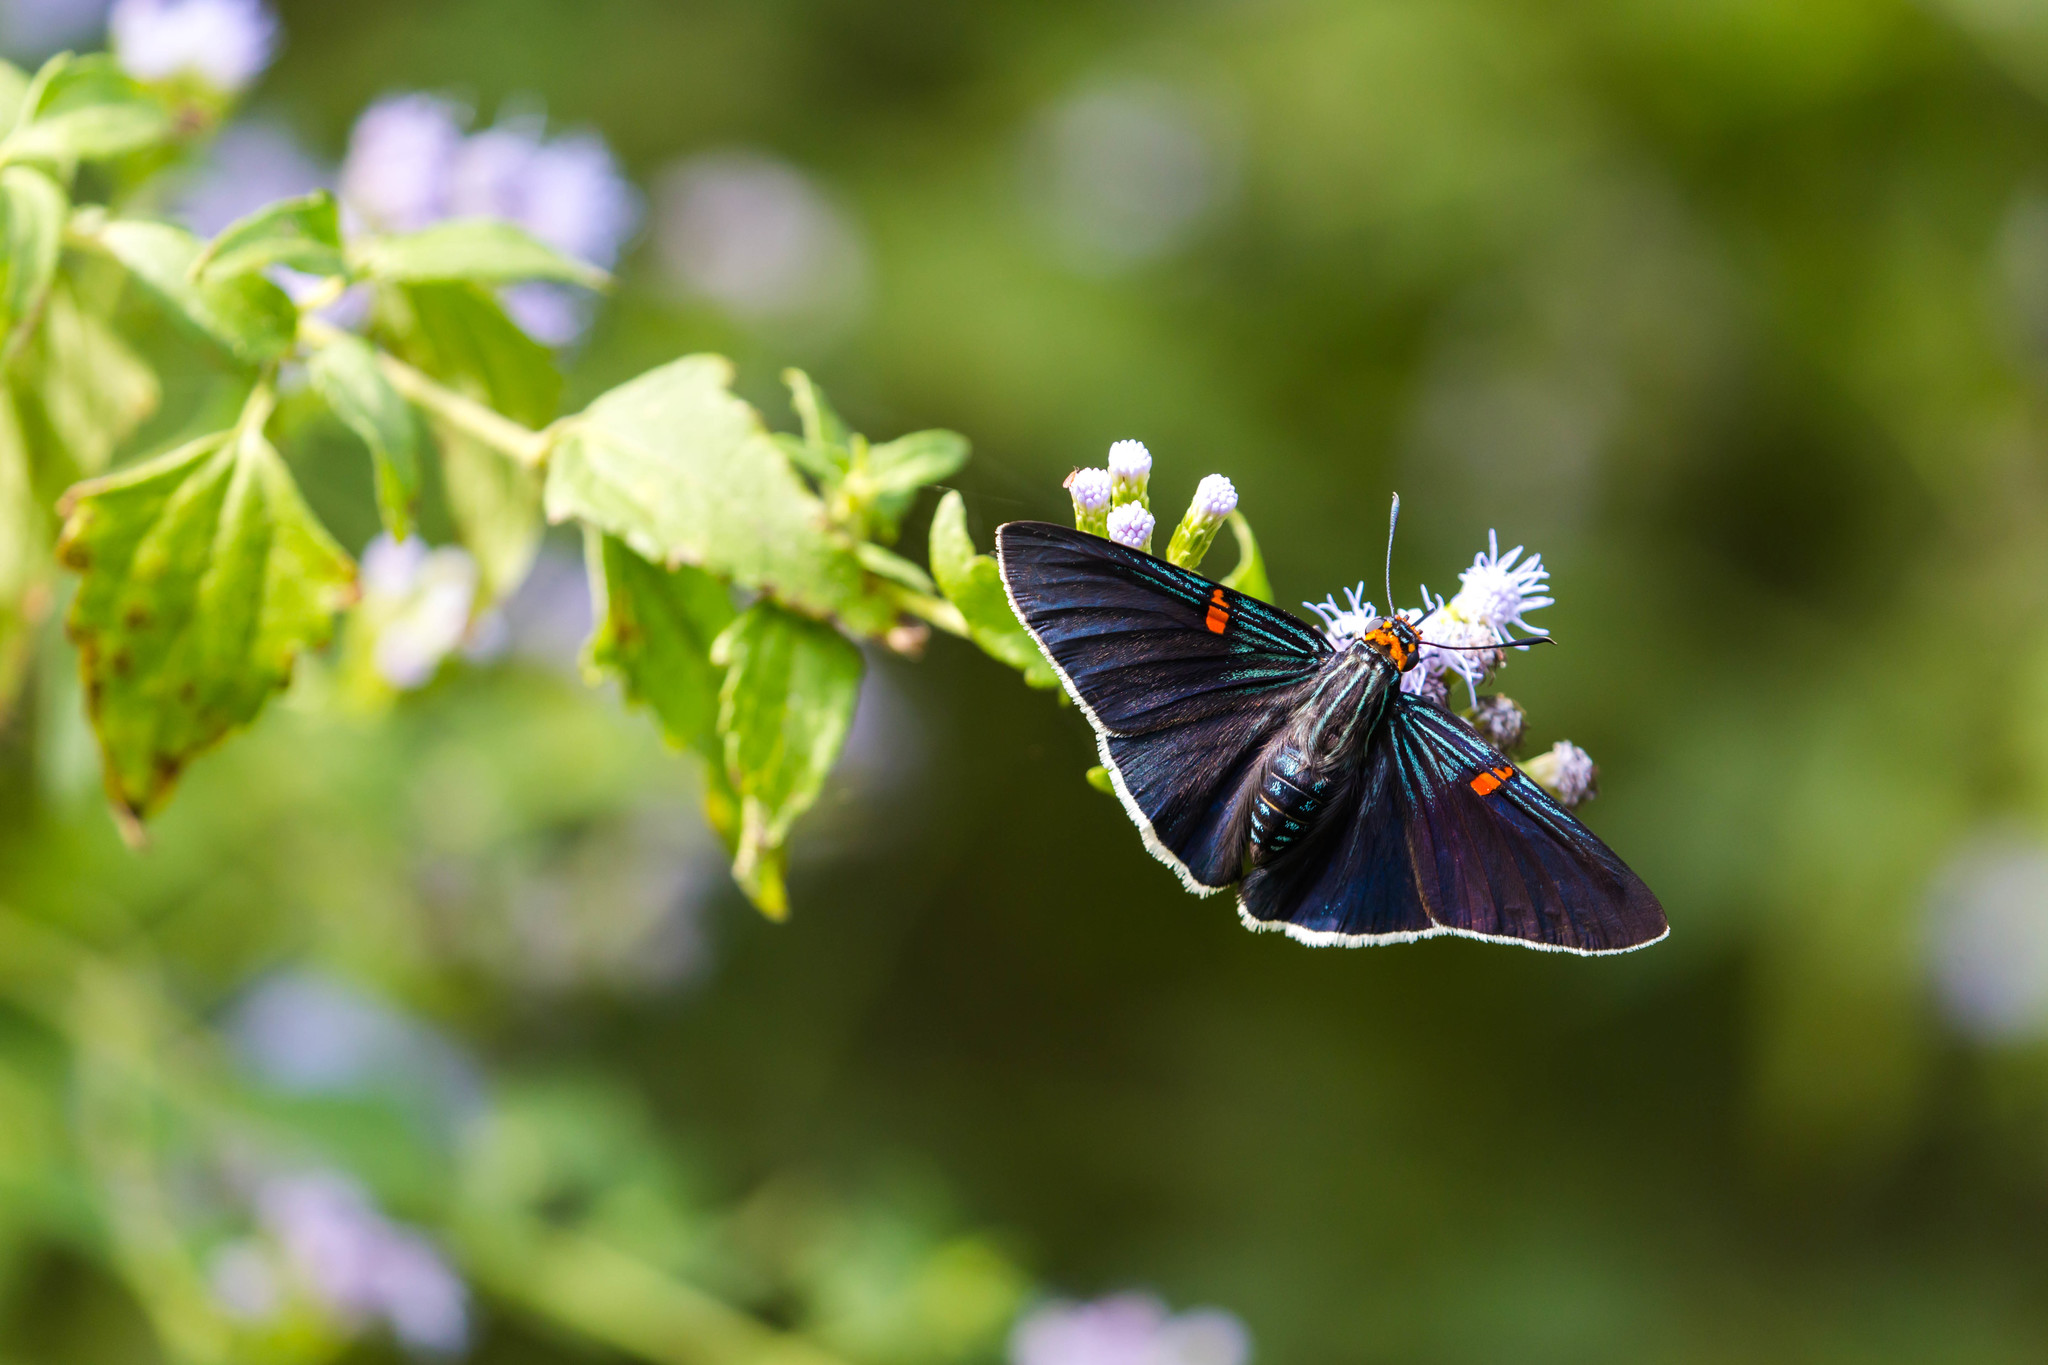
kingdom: Animalia
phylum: Arthropoda
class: Insecta
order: Lepidoptera
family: Hesperiidae
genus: Phocides
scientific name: Phocides lilea
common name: Guava skipper
